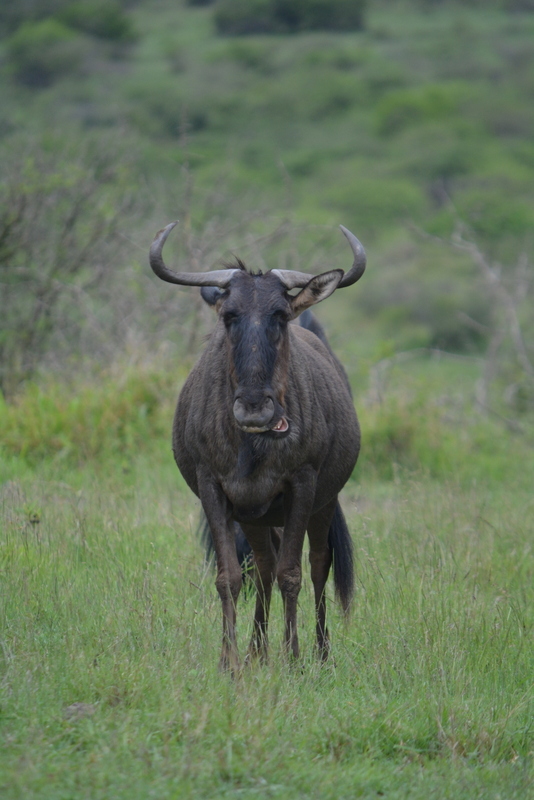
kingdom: Animalia
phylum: Chordata
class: Mammalia
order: Artiodactyla
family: Bovidae
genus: Connochaetes
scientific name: Connochaetes taurinus
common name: Blue wildebeest
